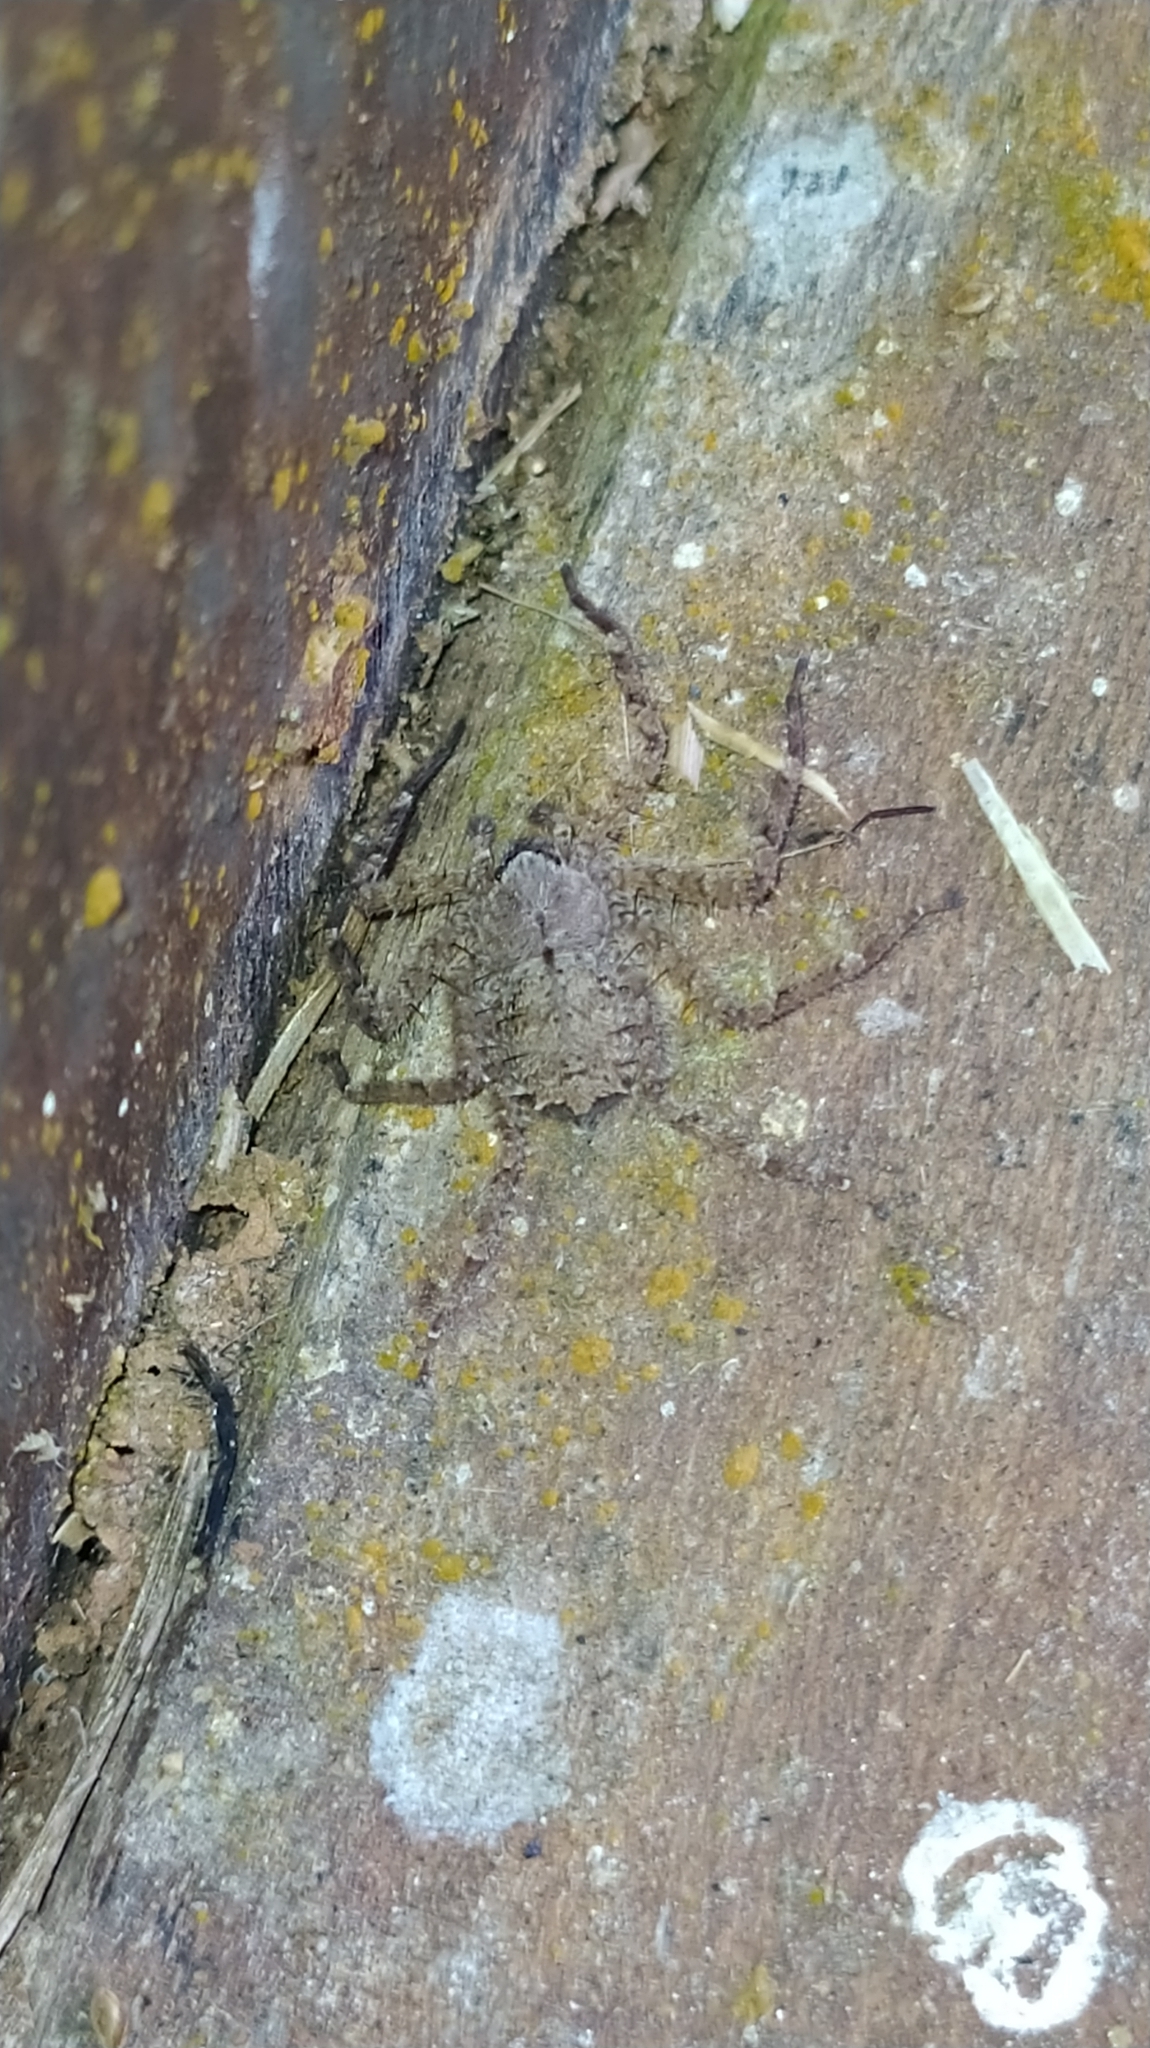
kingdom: Animalia
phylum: Arthropoda
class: Arachnida
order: Araneae
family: Selenopidae
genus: Selenops
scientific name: Selenops
